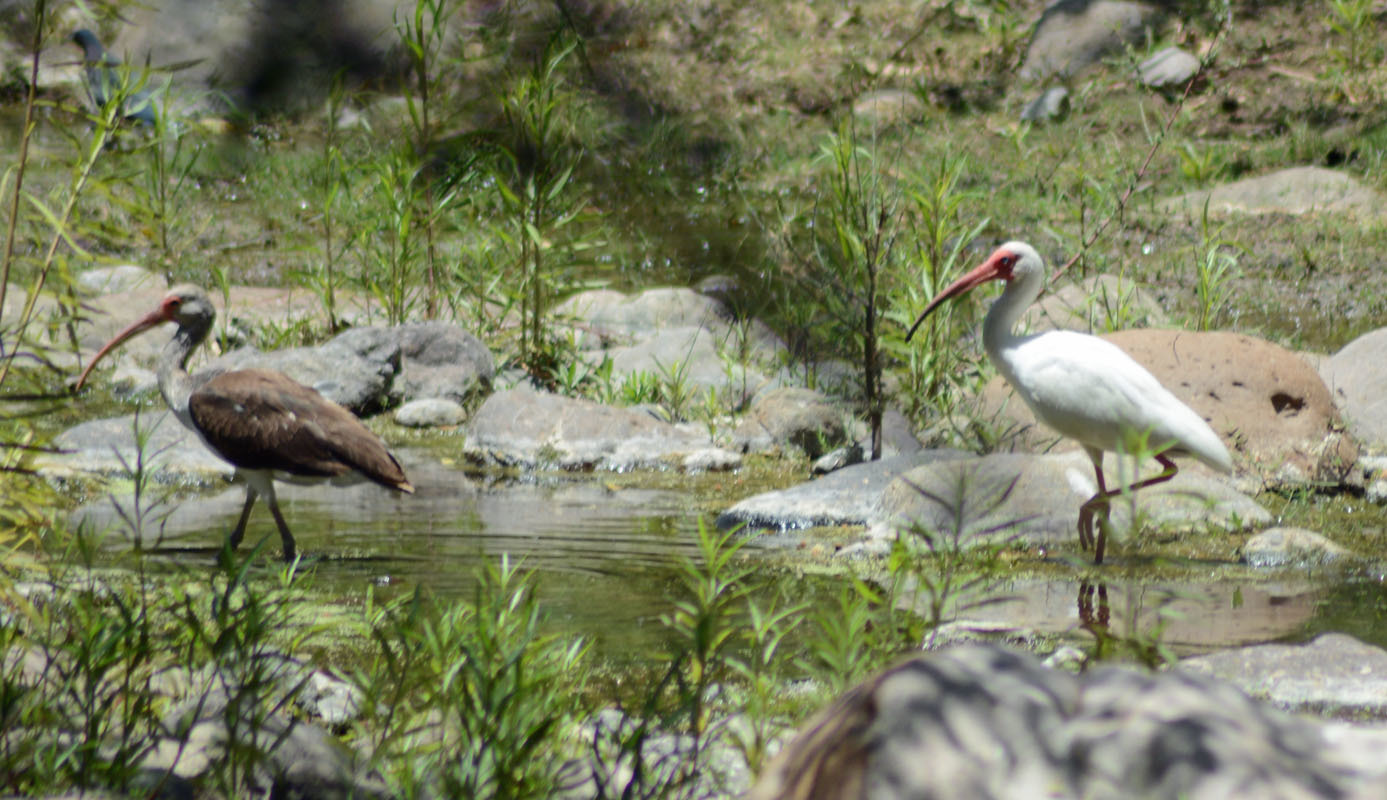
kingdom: Animalia
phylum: Chordata
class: Aves
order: Pelecaniformes
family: Threskiornithidae
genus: Eudocimus
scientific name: Eudocimus albus
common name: White ibis
